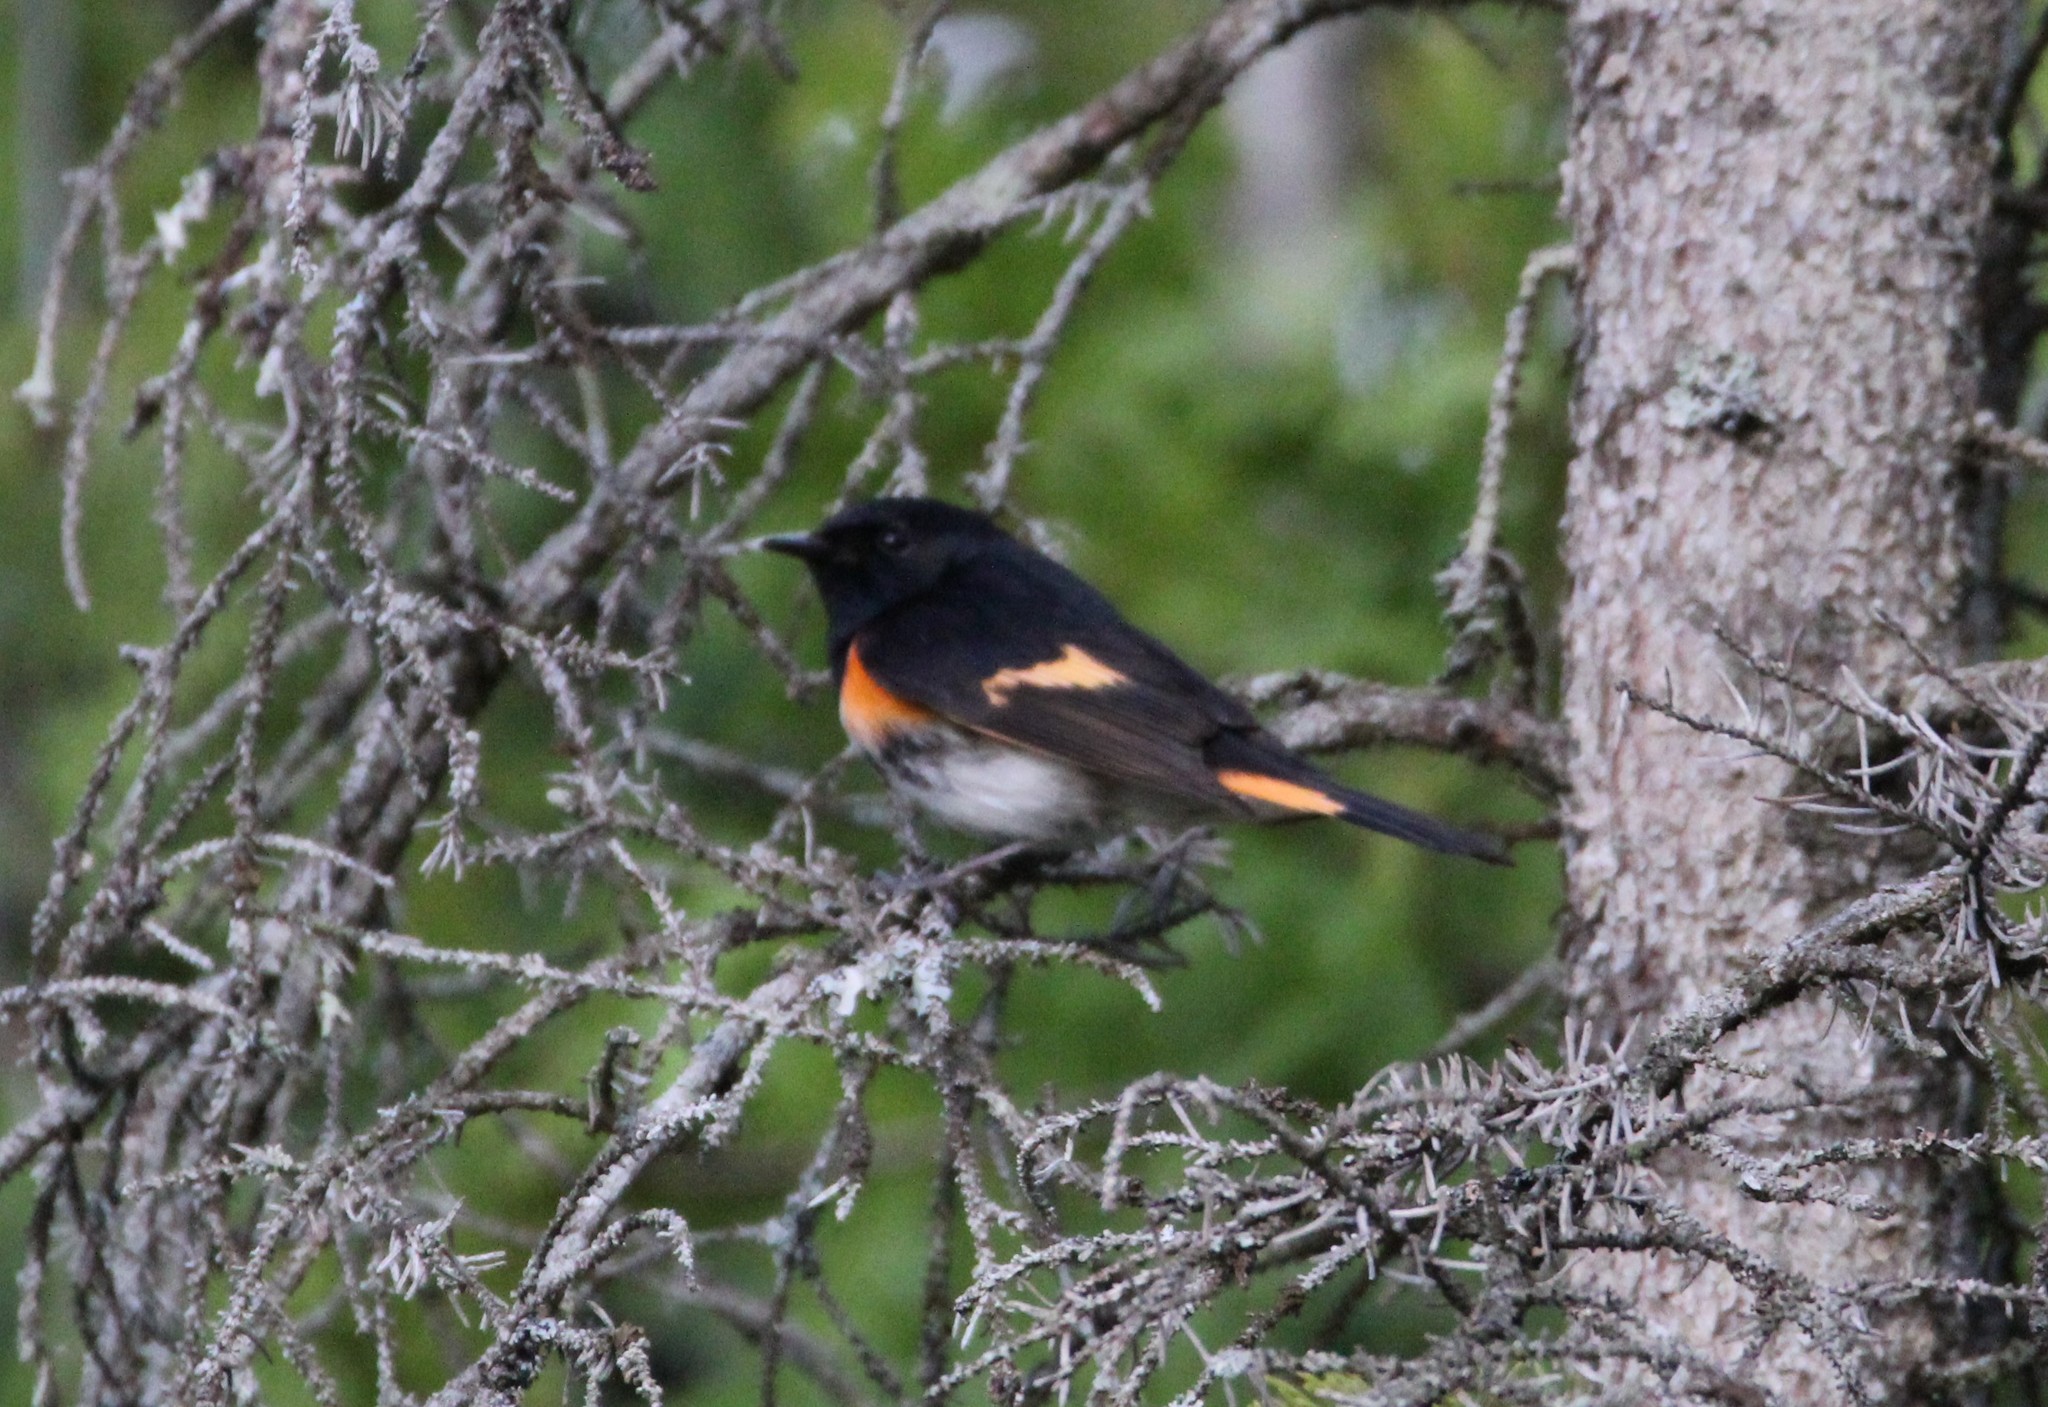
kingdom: Animalia
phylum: Chordata
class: Aves
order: Passeriformes
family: Parulidae
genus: Setophaga
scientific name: Setophaga ruticilla
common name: American redstart
